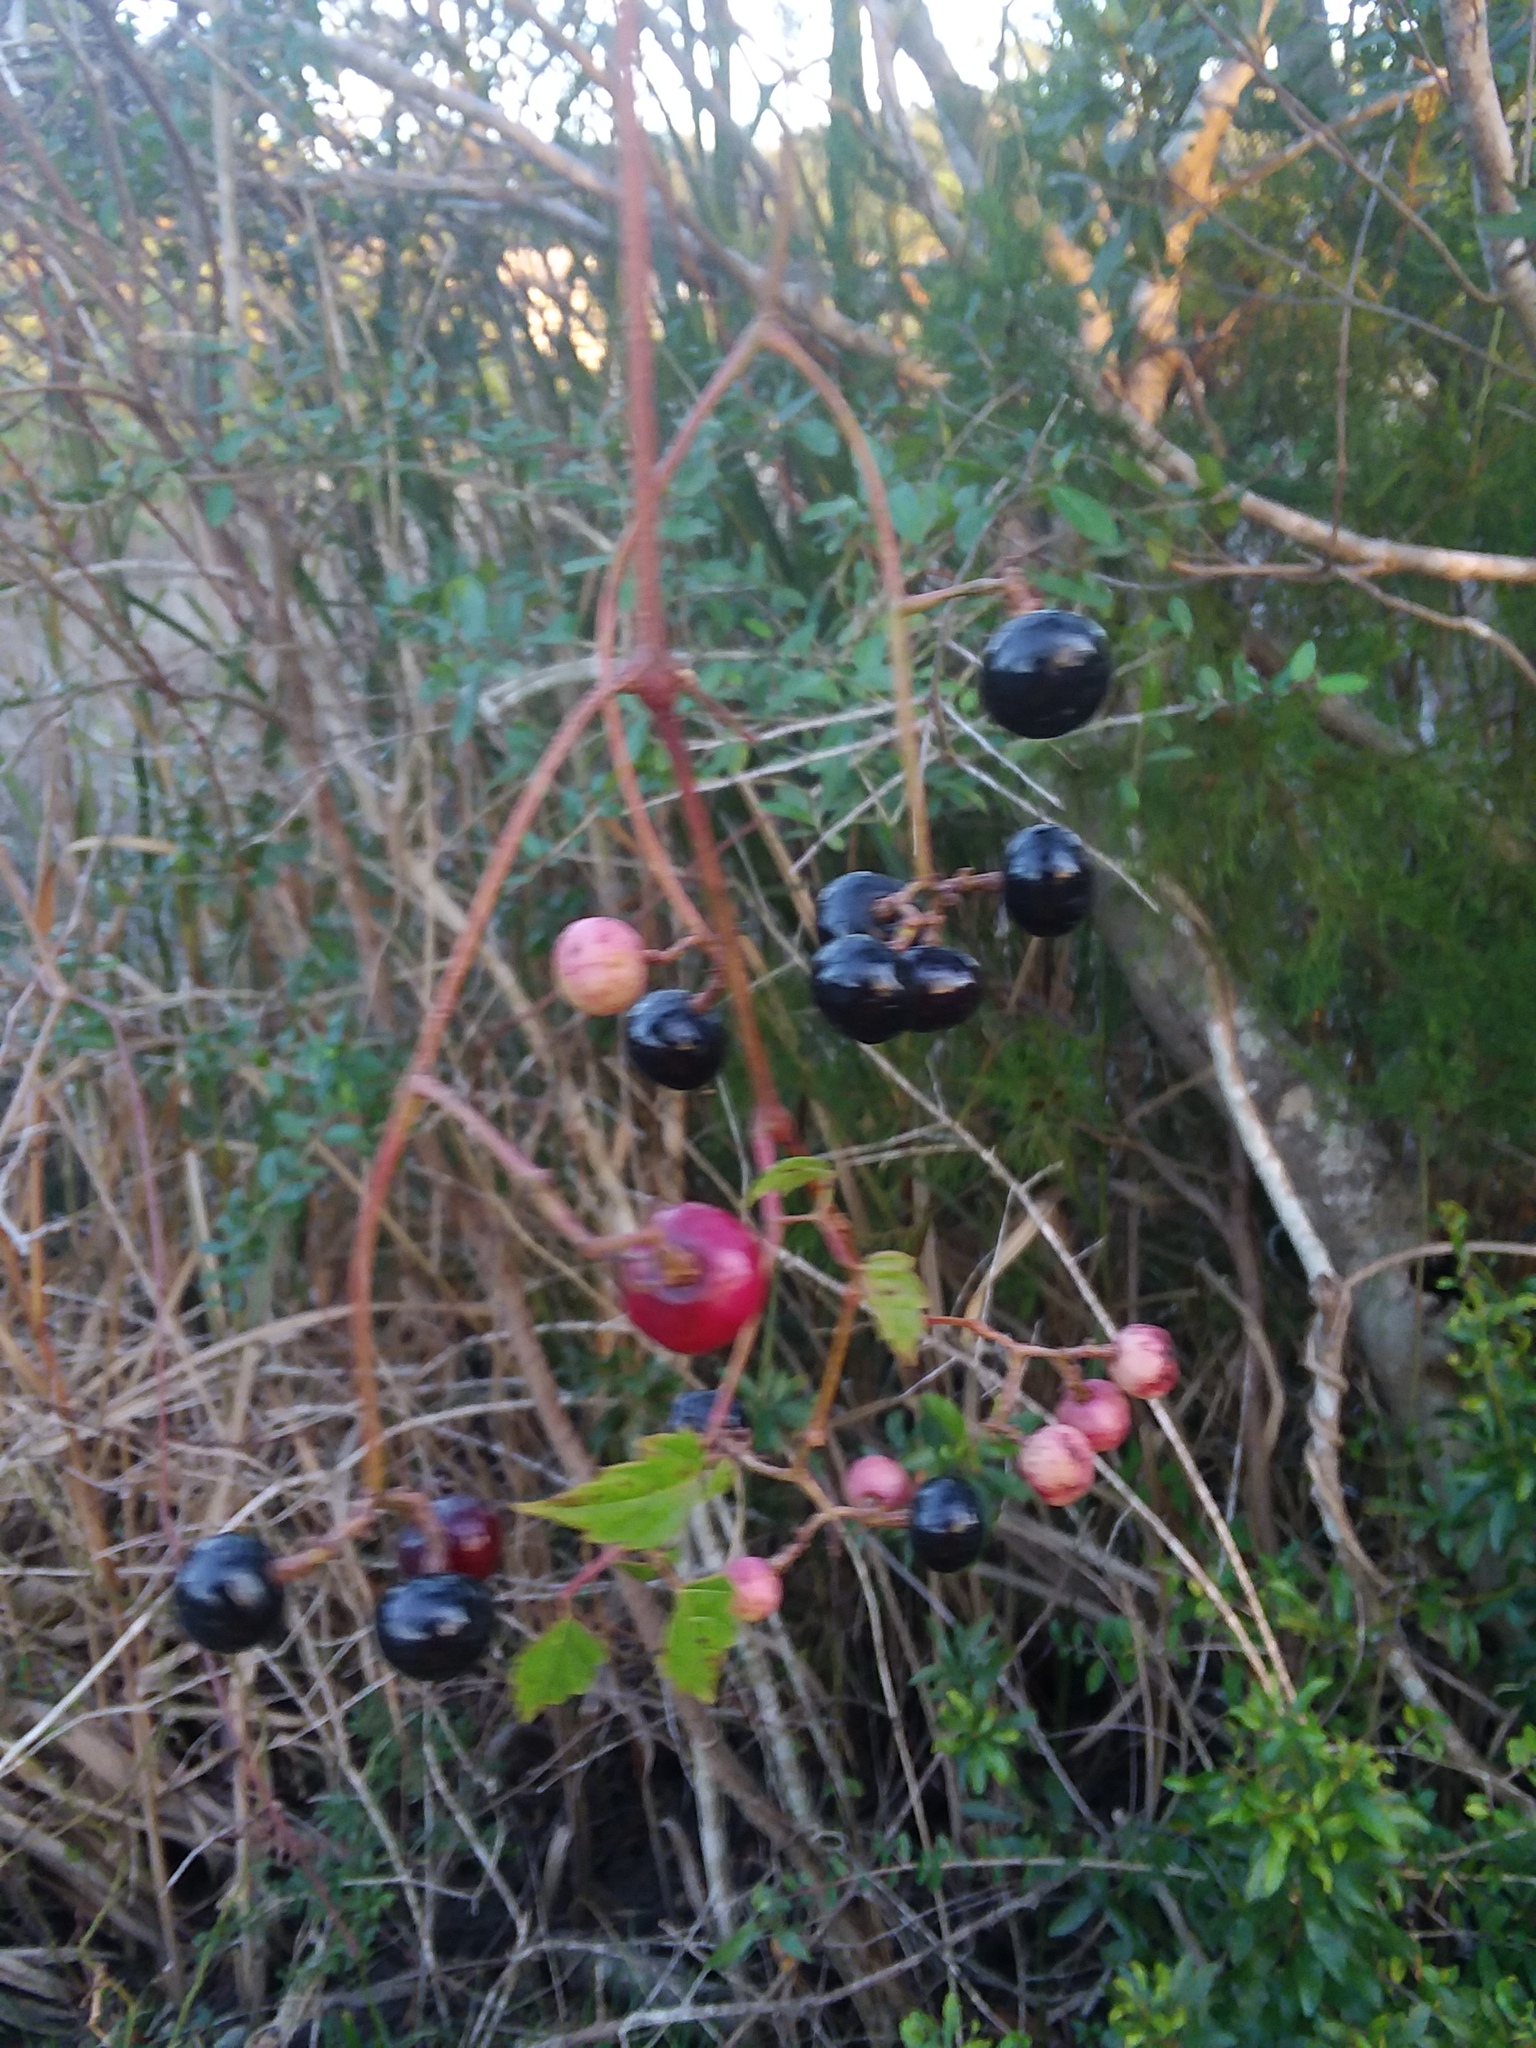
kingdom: Plantae
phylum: Tracheophyta
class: Magnoliopsida
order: Vitales
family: Vitaceae
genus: Nekemias
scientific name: Nekemias arborea
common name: Peppervine
